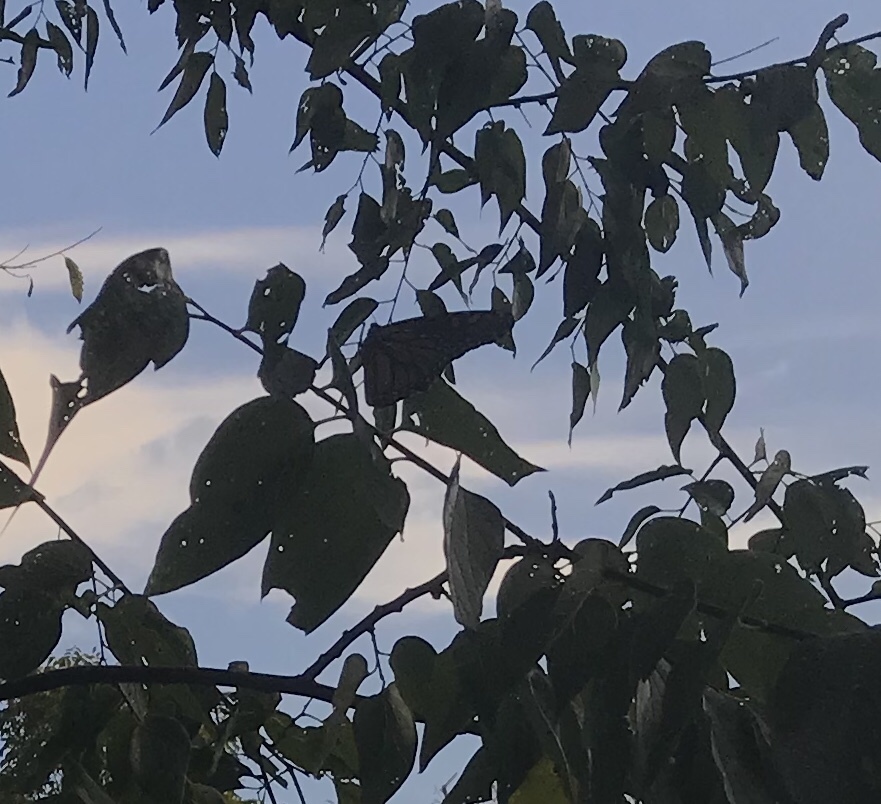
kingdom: Animalia
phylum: Arthropoda
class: Insecta
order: Lepidoptera
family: Nymphalidae
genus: Danaus
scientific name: Danaus plexippus
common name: Monarch
